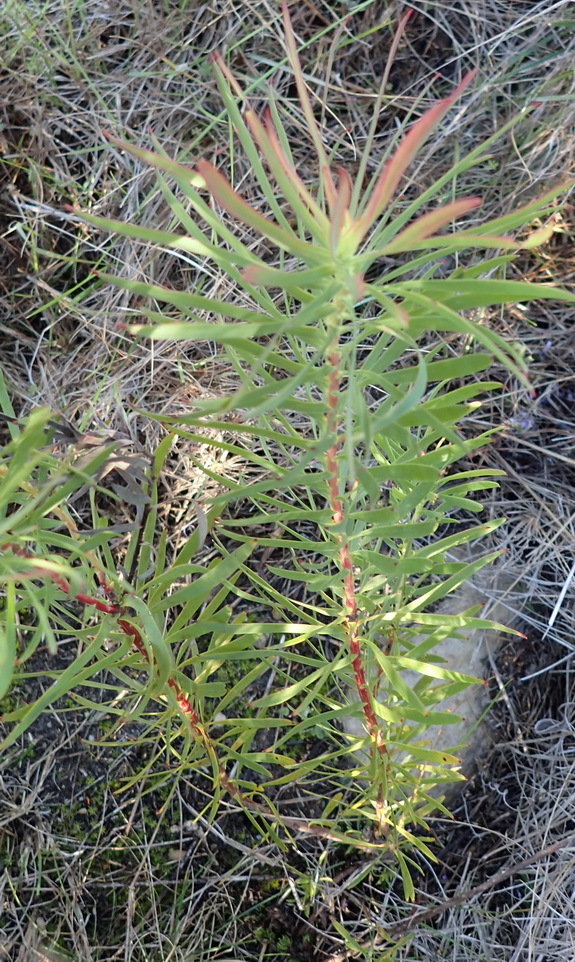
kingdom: Plantae
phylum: Tracheophyta
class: Magnoliopsida
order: Proteales
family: Proteaceae
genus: Leucadendron
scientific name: Leucadendron salignum
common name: Common sunshine conebush
